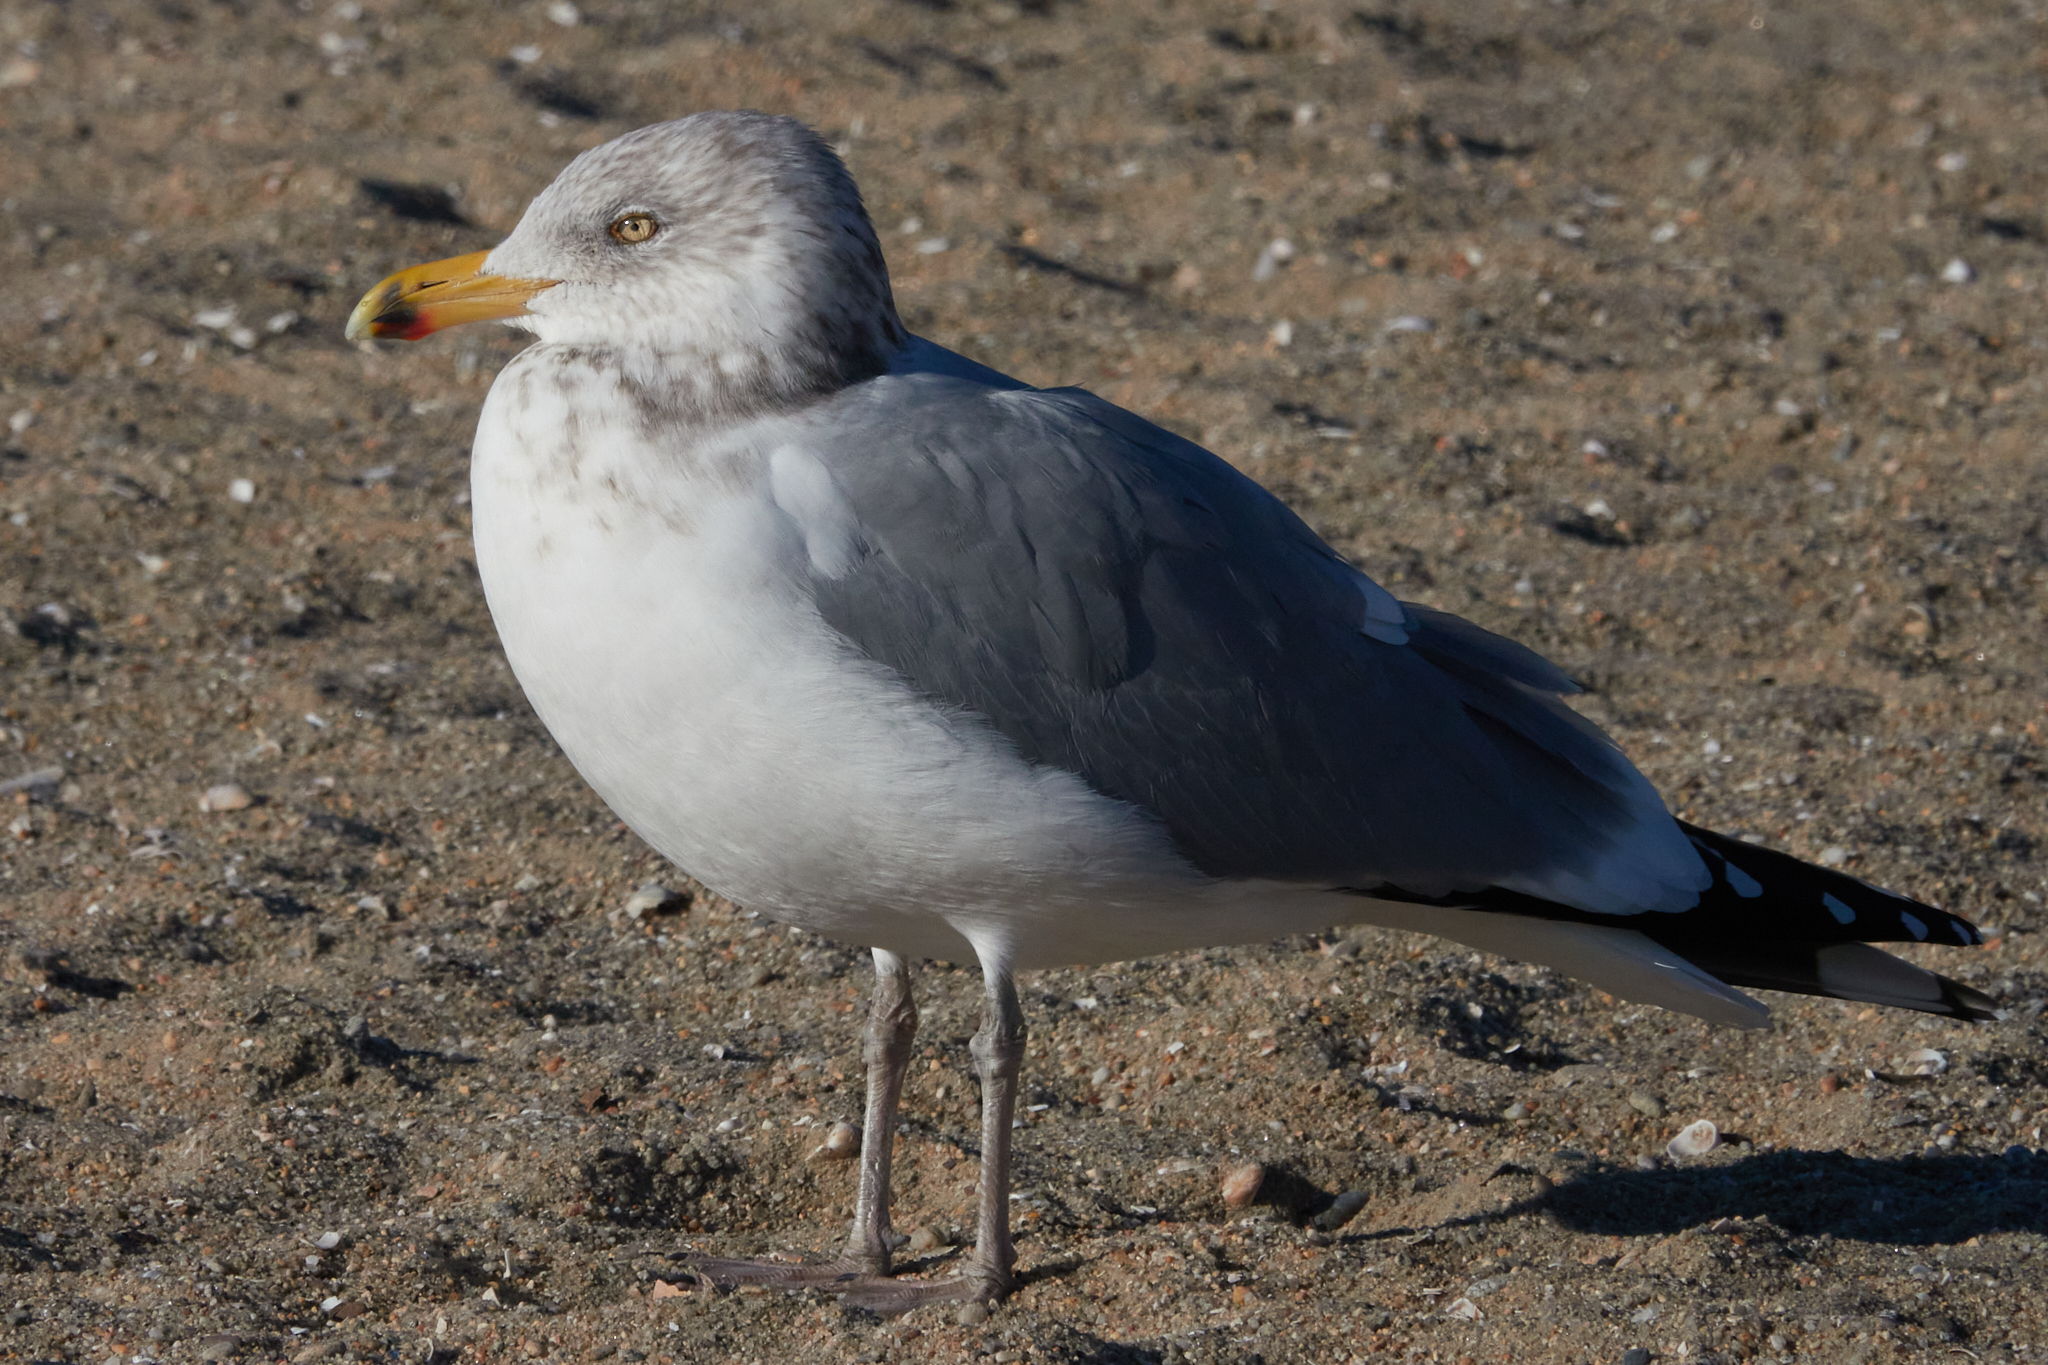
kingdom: Animalia
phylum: Chordata
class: Aves
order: Charadriiformes
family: Laridae
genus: Larus
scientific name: Larus argentatus
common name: Herring gull
